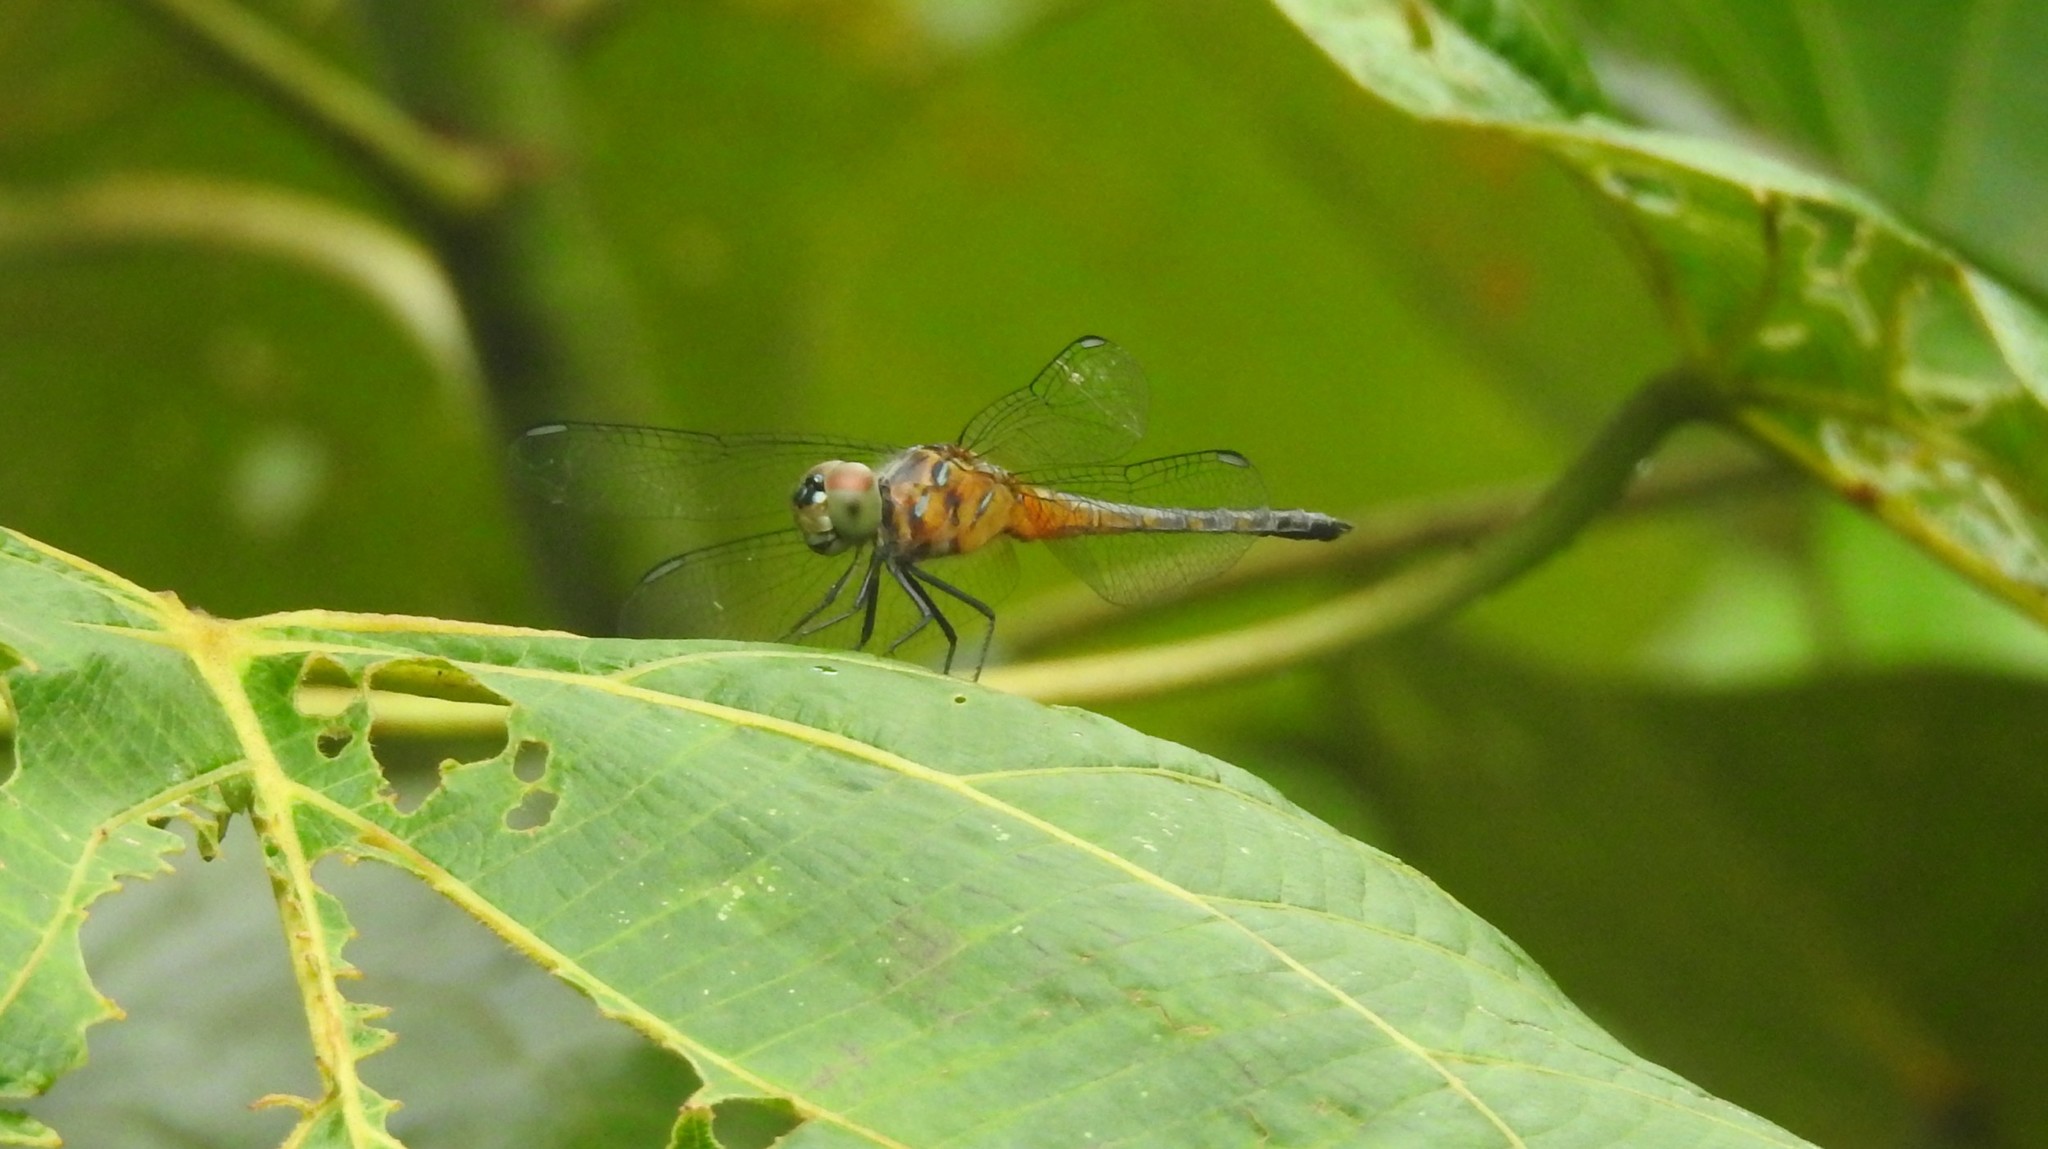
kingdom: Animalia
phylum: Arthropoda
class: Insecta
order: Odonata
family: Libellulidae
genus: Brachydiplax
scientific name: Brachydiplax chalybea
